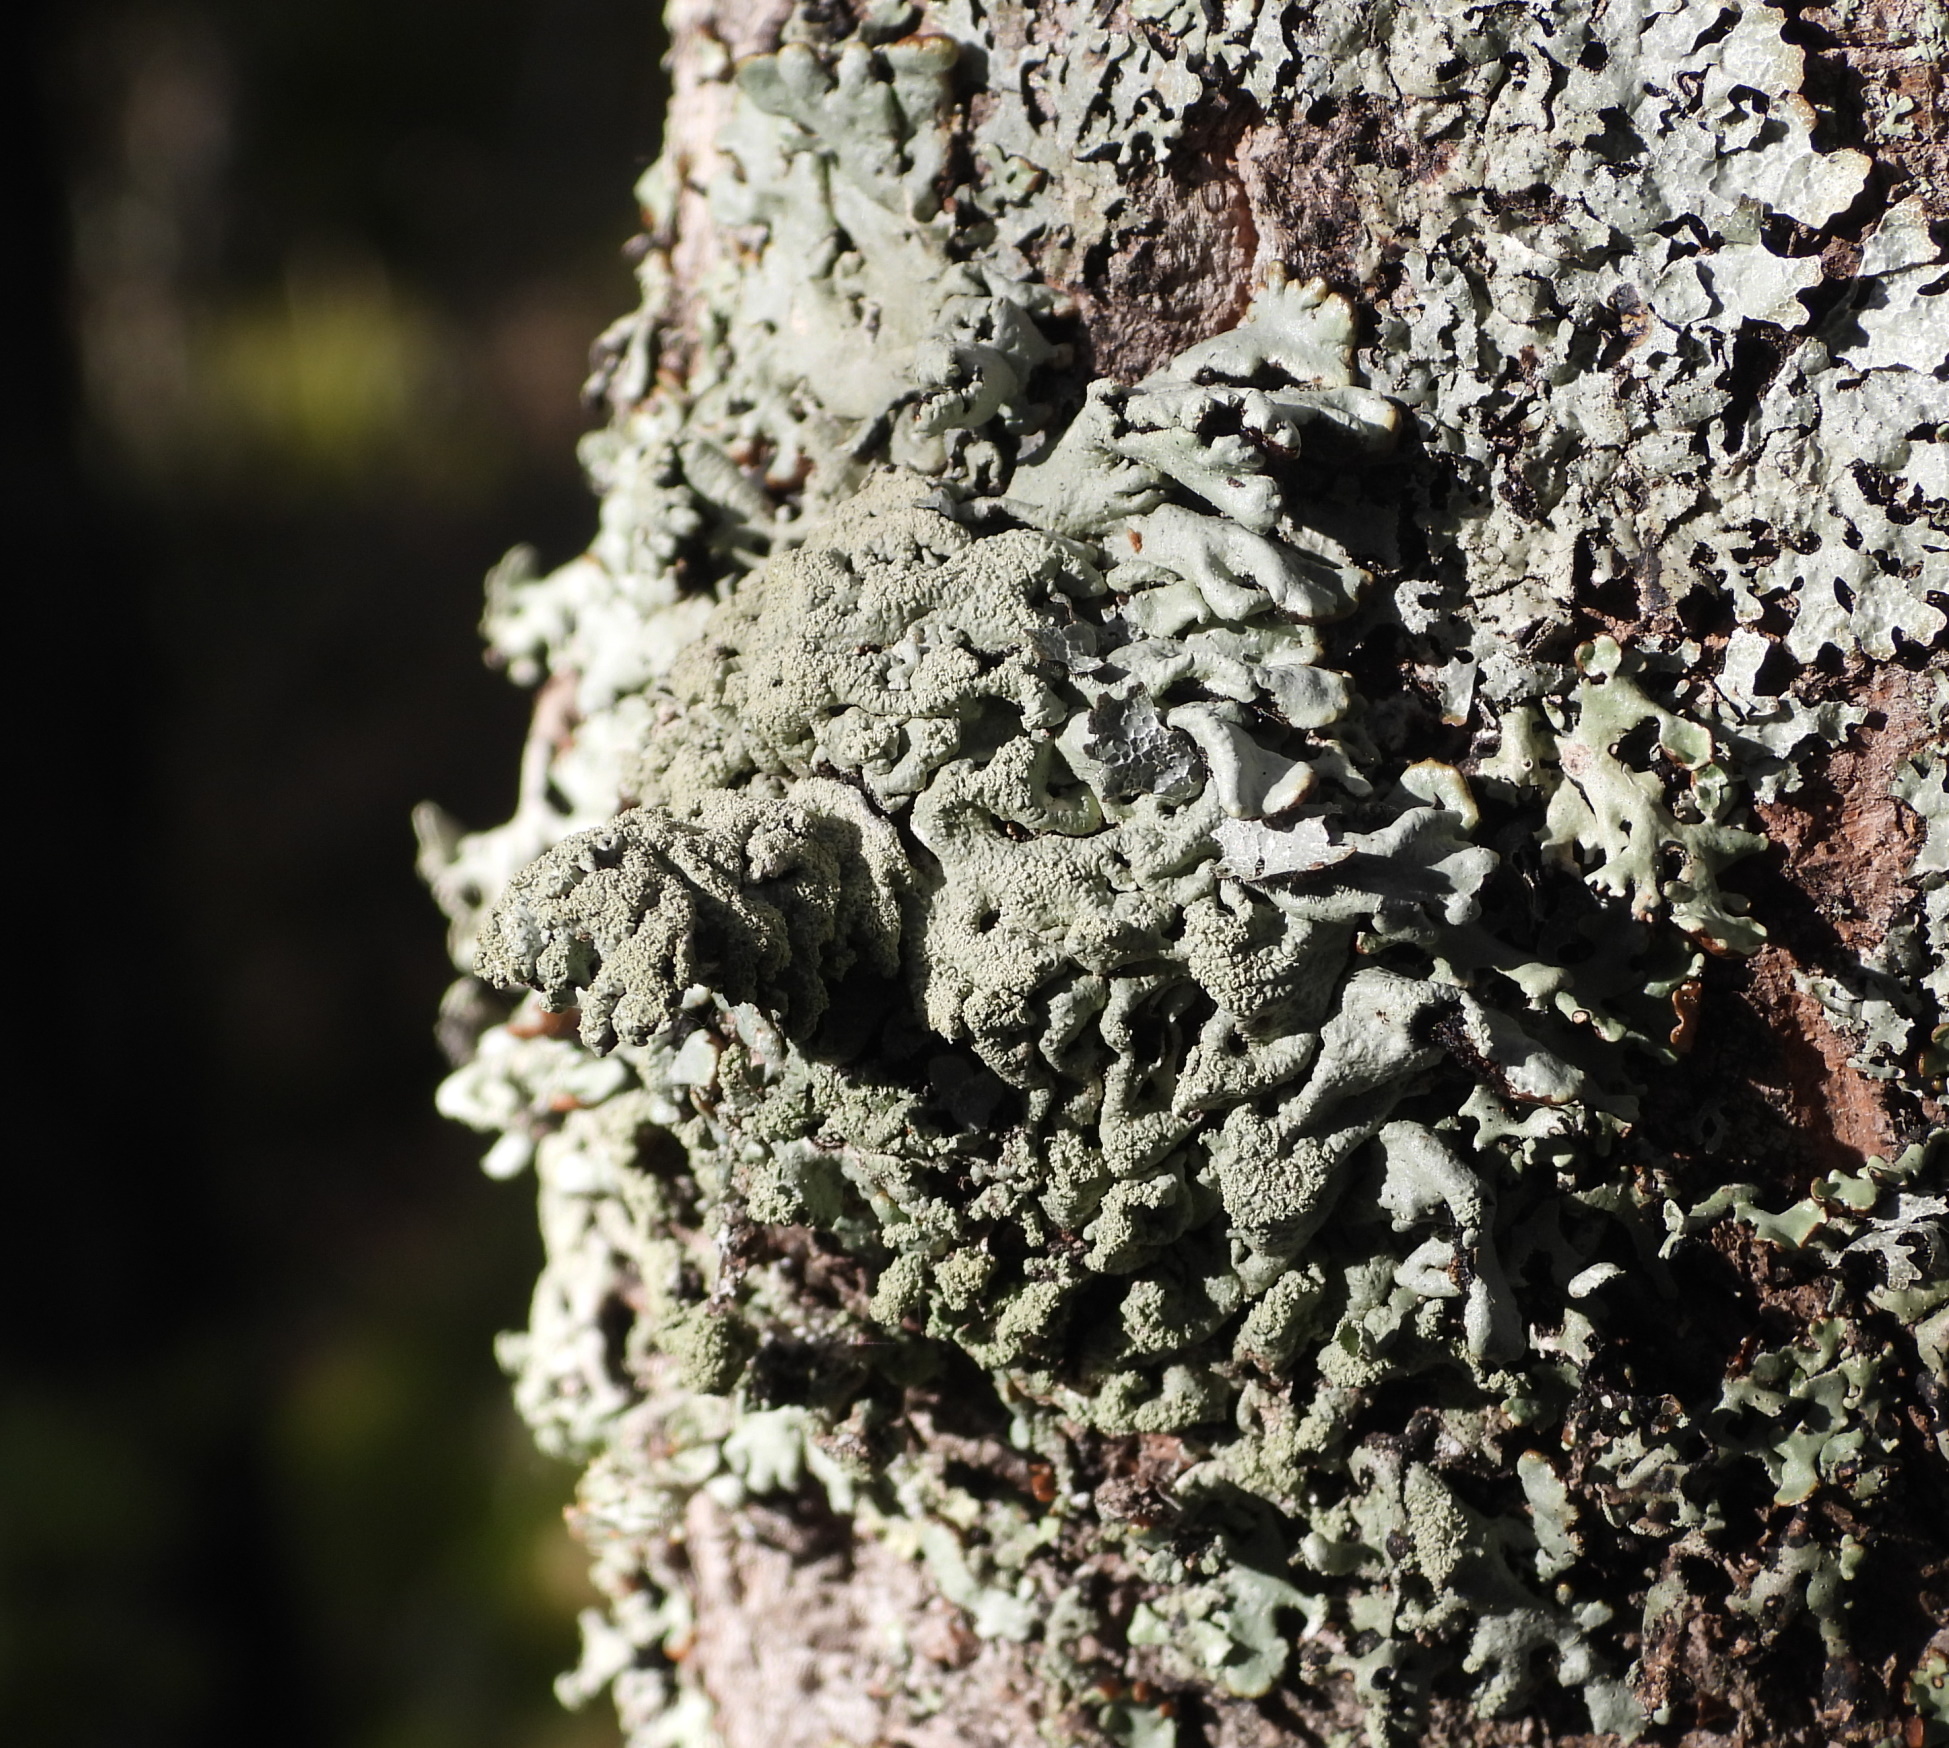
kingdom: Fungi
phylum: Ascomycota
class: Lecanoromycetes
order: Lecanorales
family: Parmeliaceae
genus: Hypogymnia
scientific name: Hypogymnia farinacea
